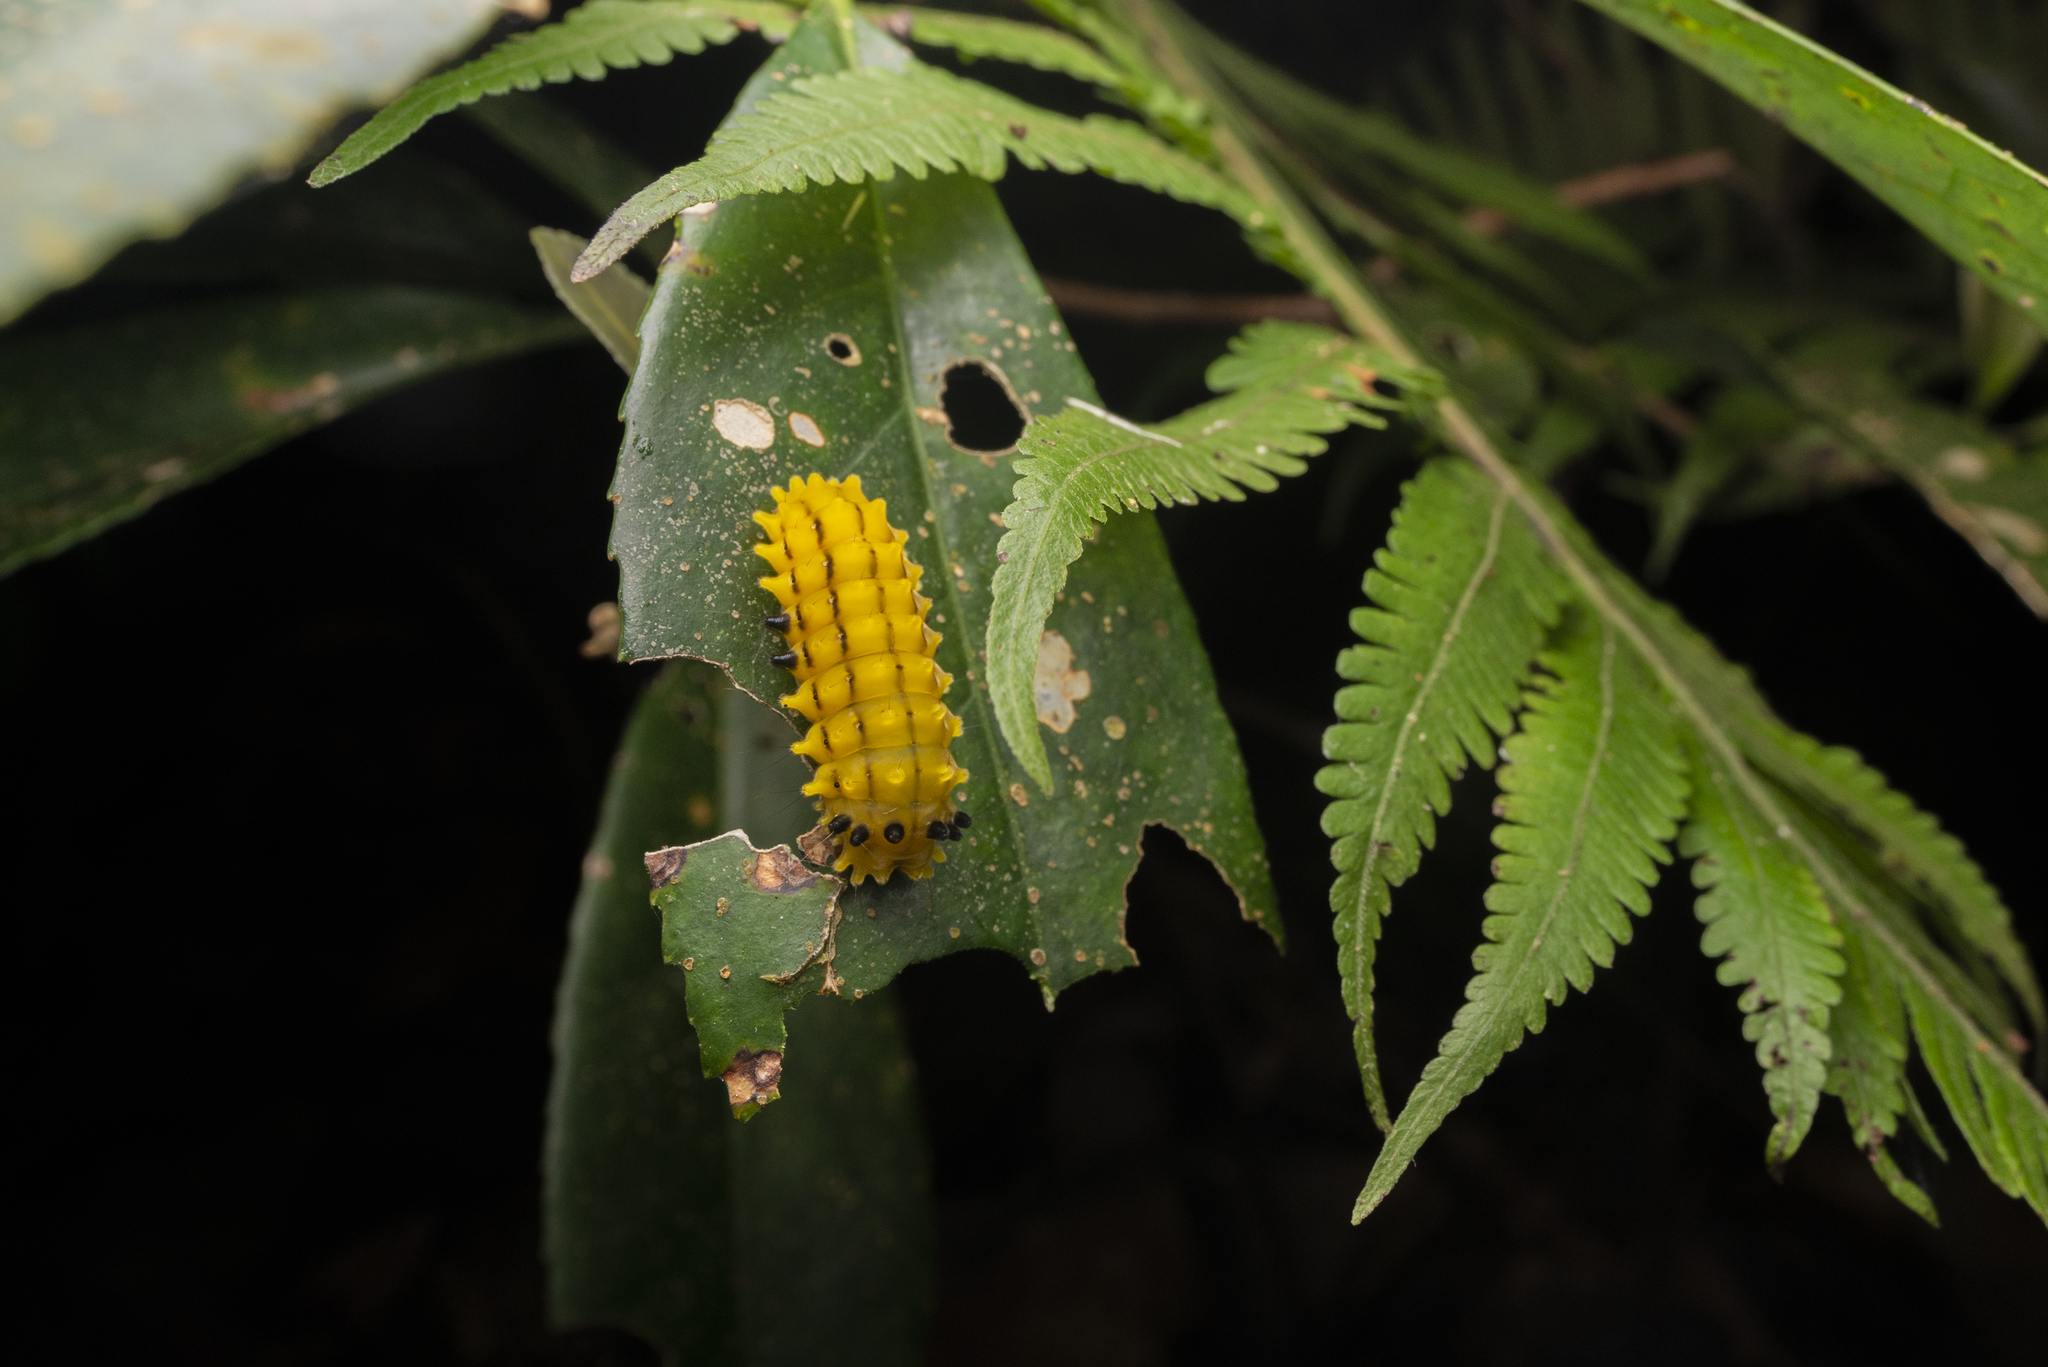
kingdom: Animalia
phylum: Arthropoda
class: Insecta
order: Lepidoptera
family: Zygaenidae
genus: Chalcosia
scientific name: Chalcosia suffusa
